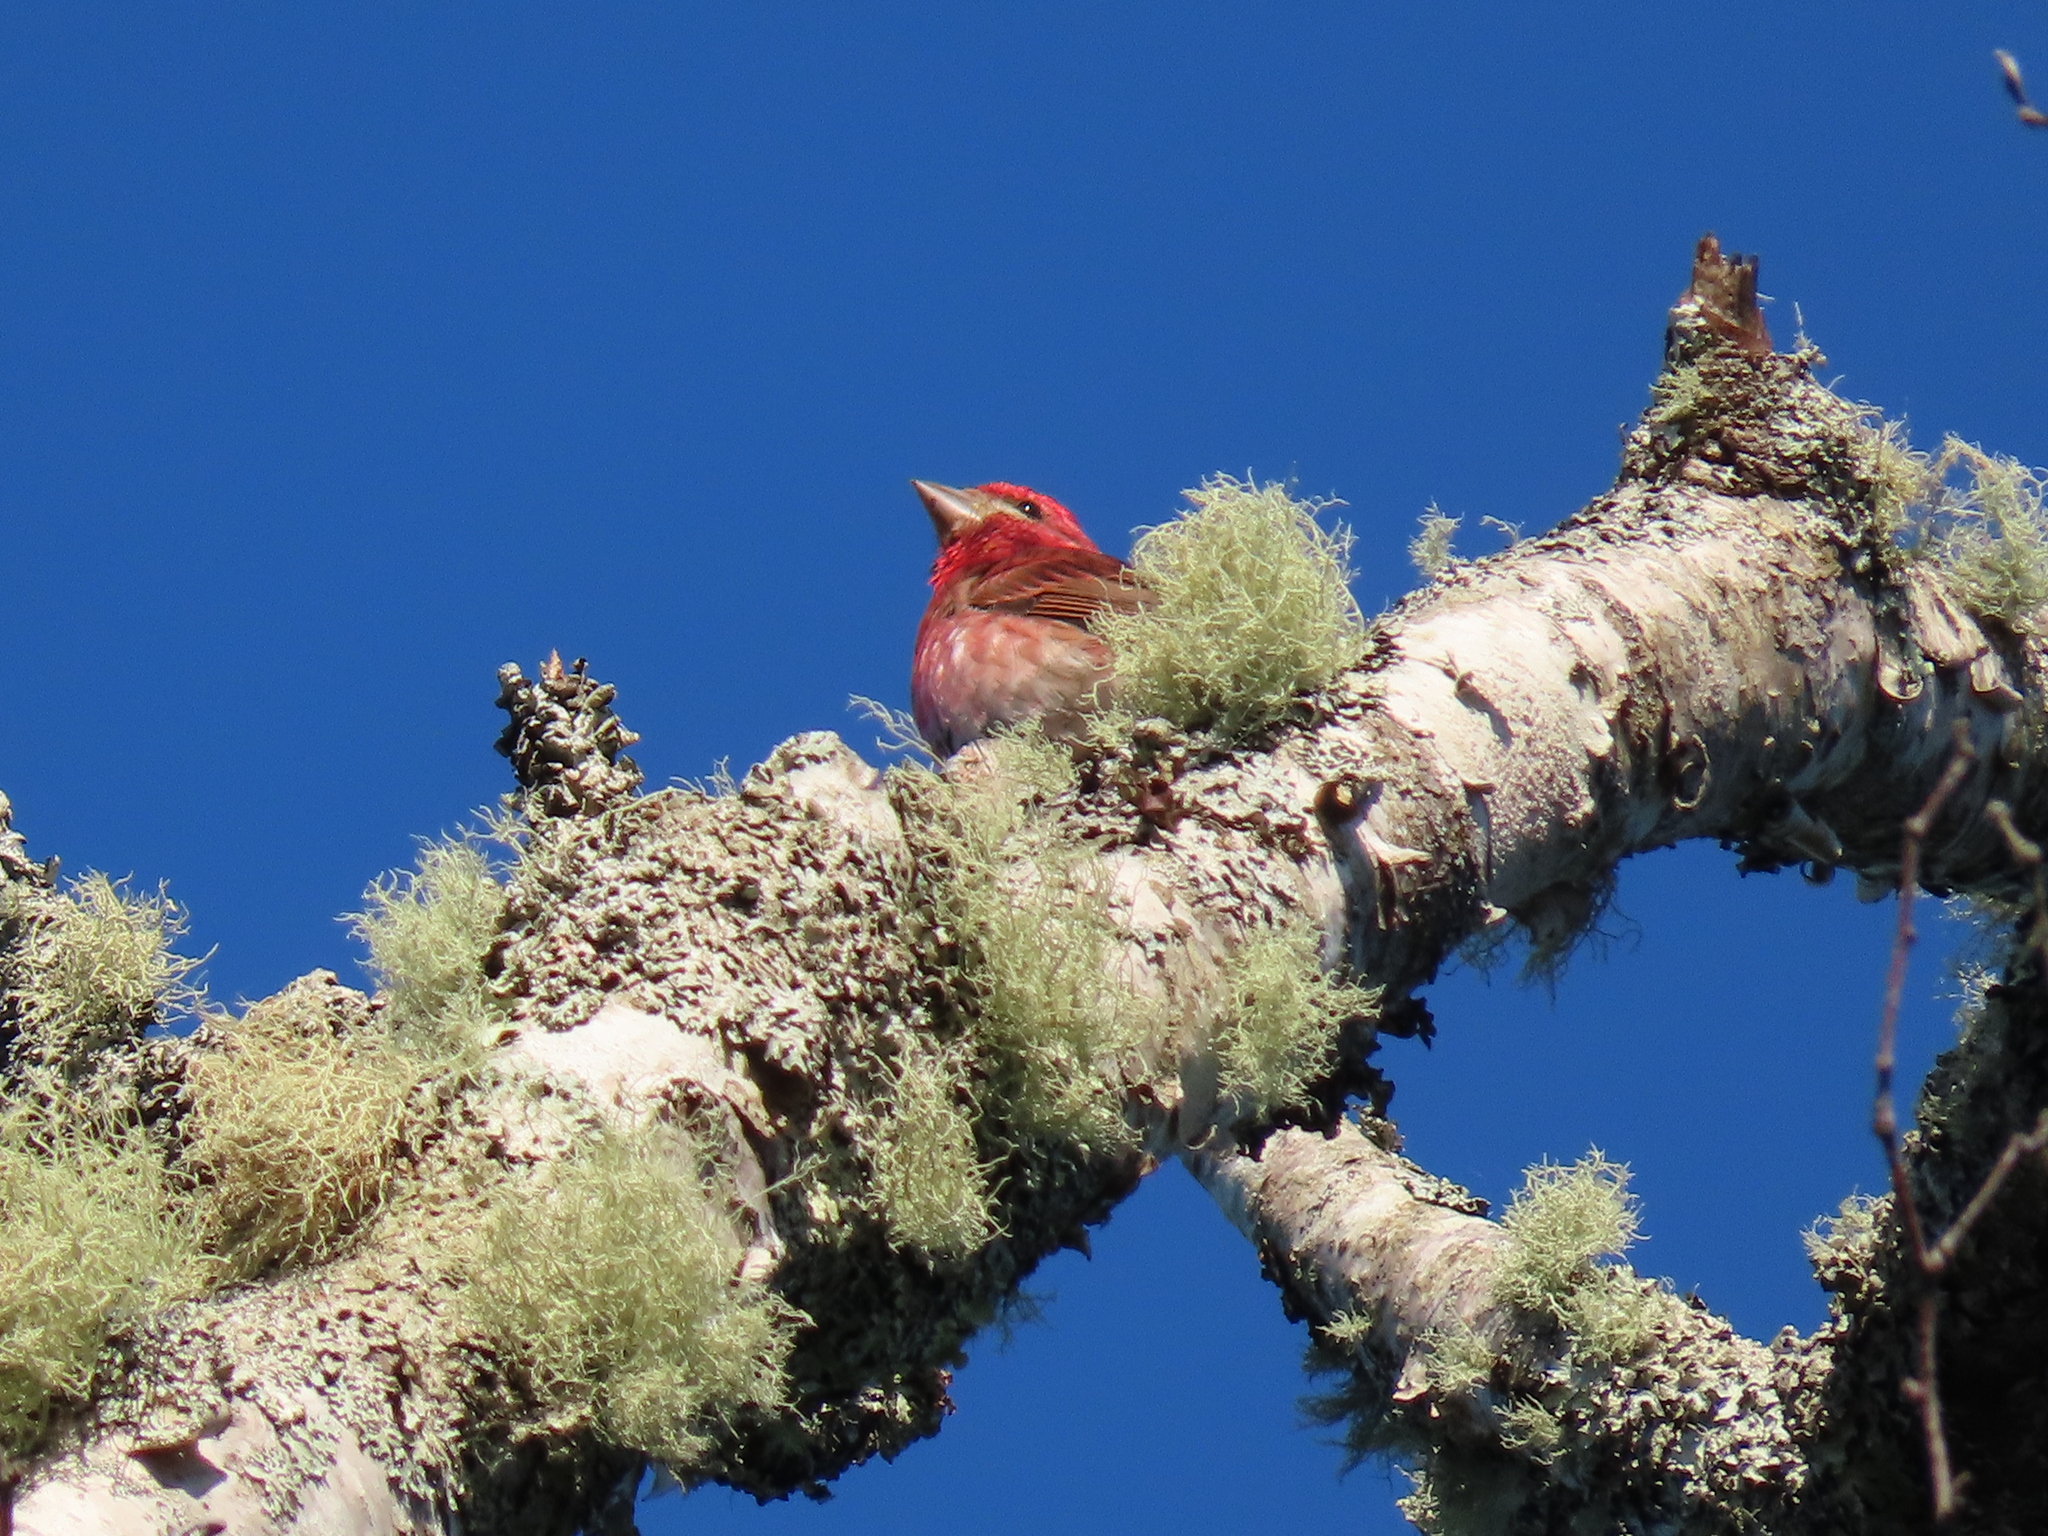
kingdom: Animalia
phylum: Chordata
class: Aves
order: Passeriformes
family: Fringillidae
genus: Haemorhous
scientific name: Haemorhous purpureus
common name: Purple finch
